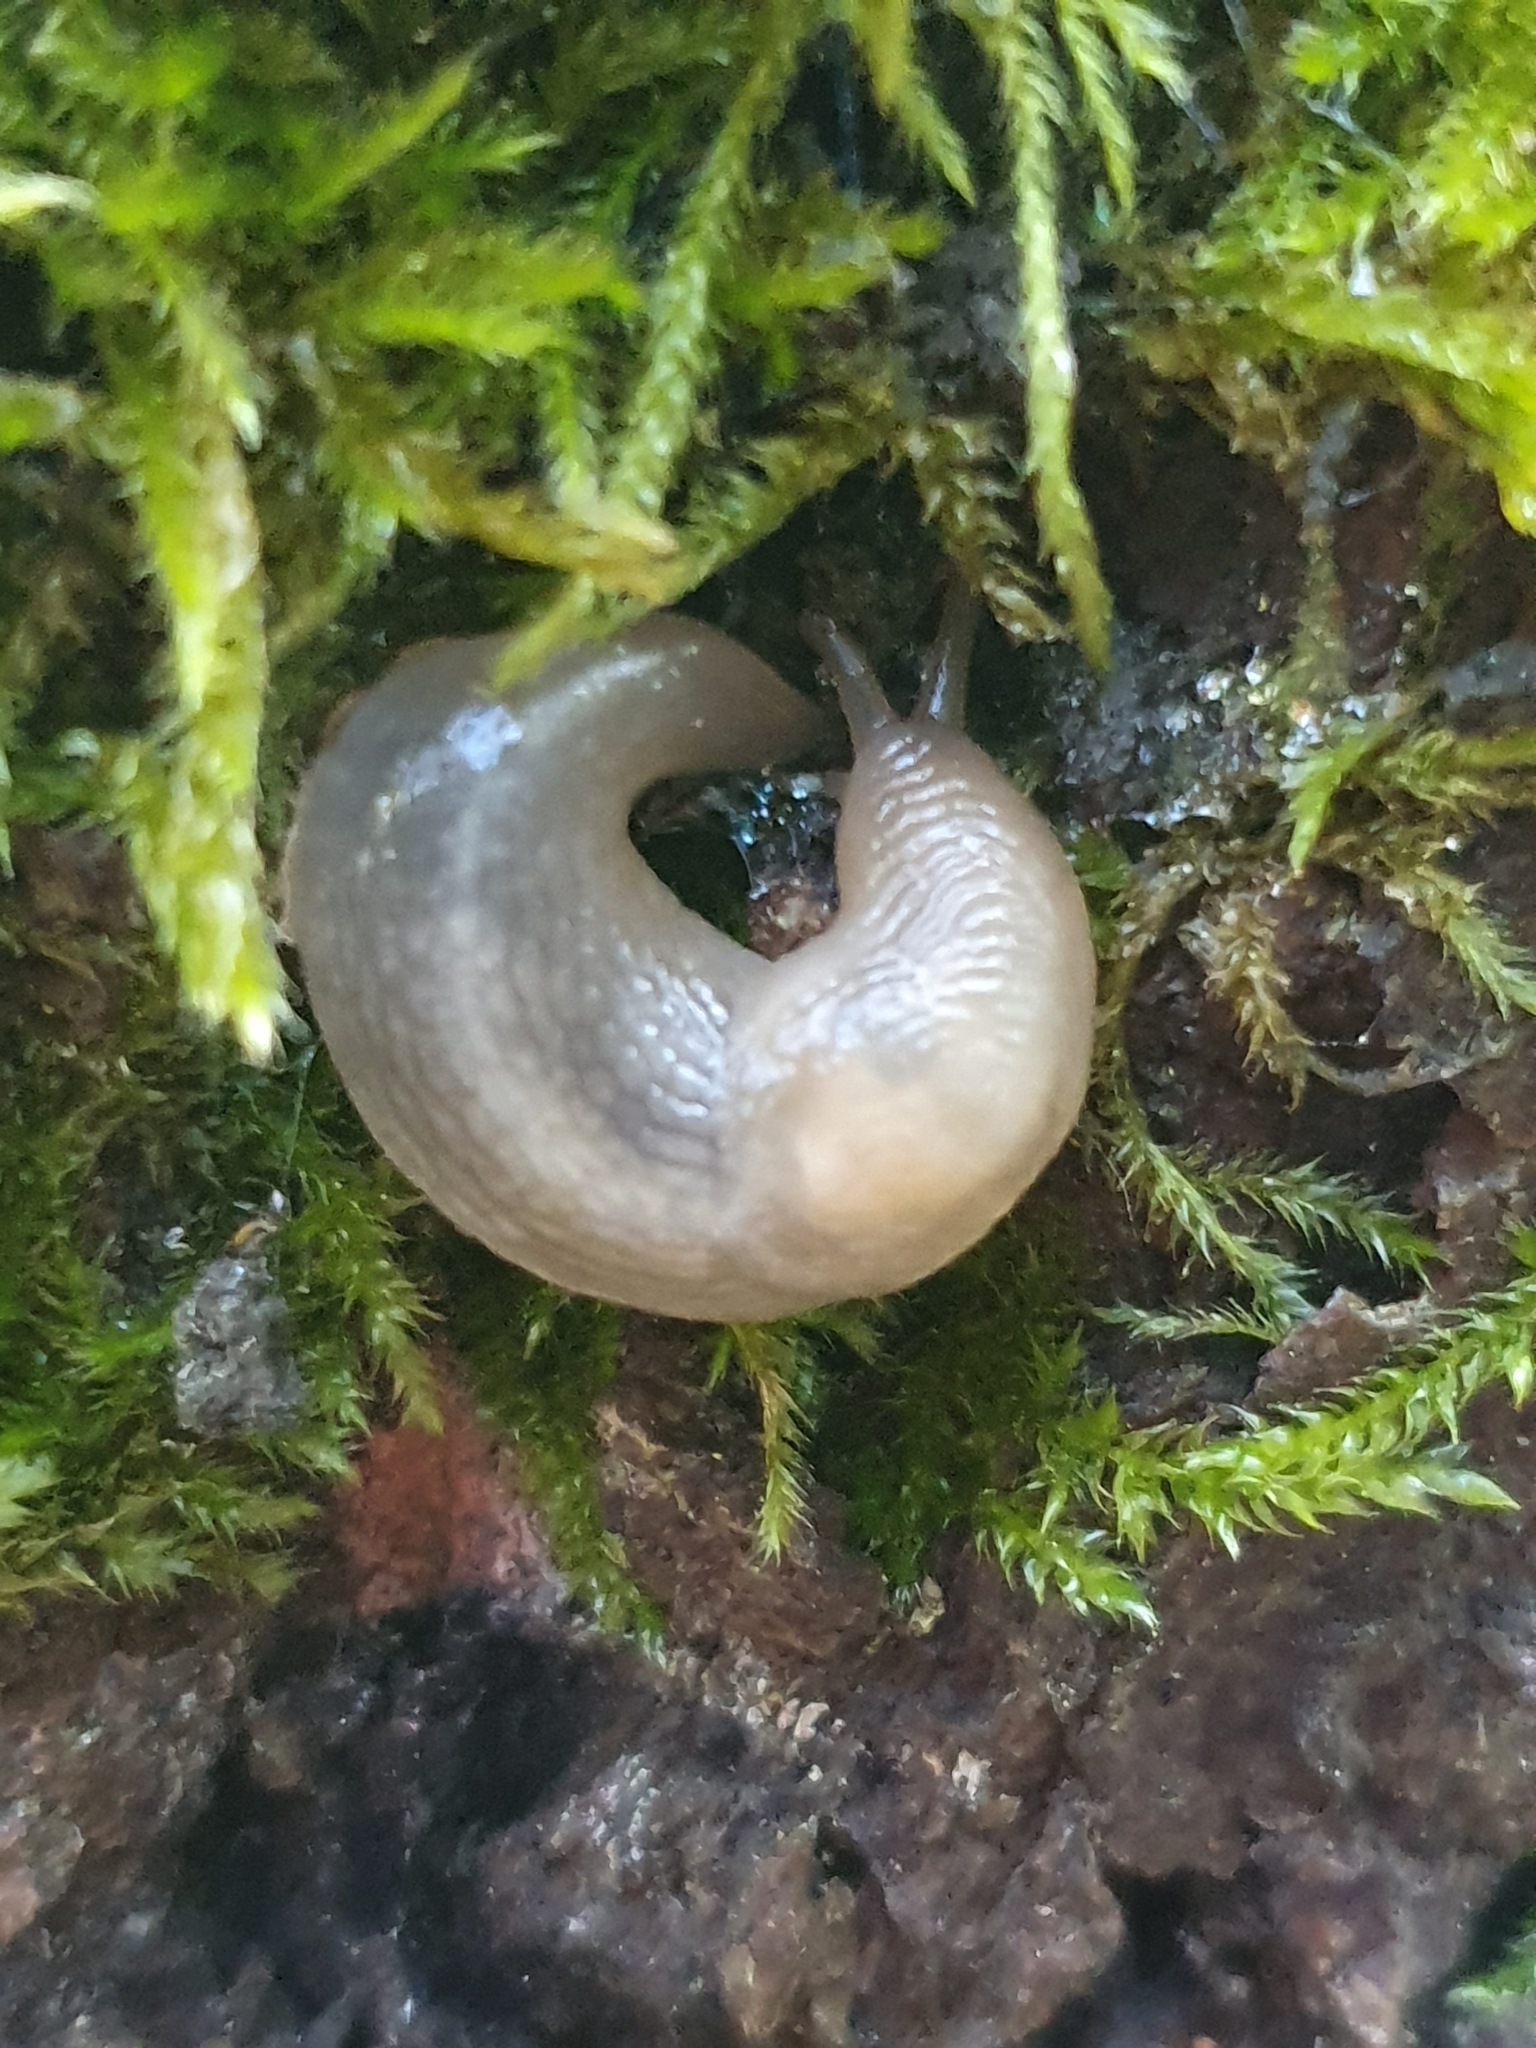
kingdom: Animalia
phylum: Mollusca
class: Gastropoda
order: Stylommatophora
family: Limacidae
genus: Lehmannia
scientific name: Lehmannia marginata
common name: Tree slug
